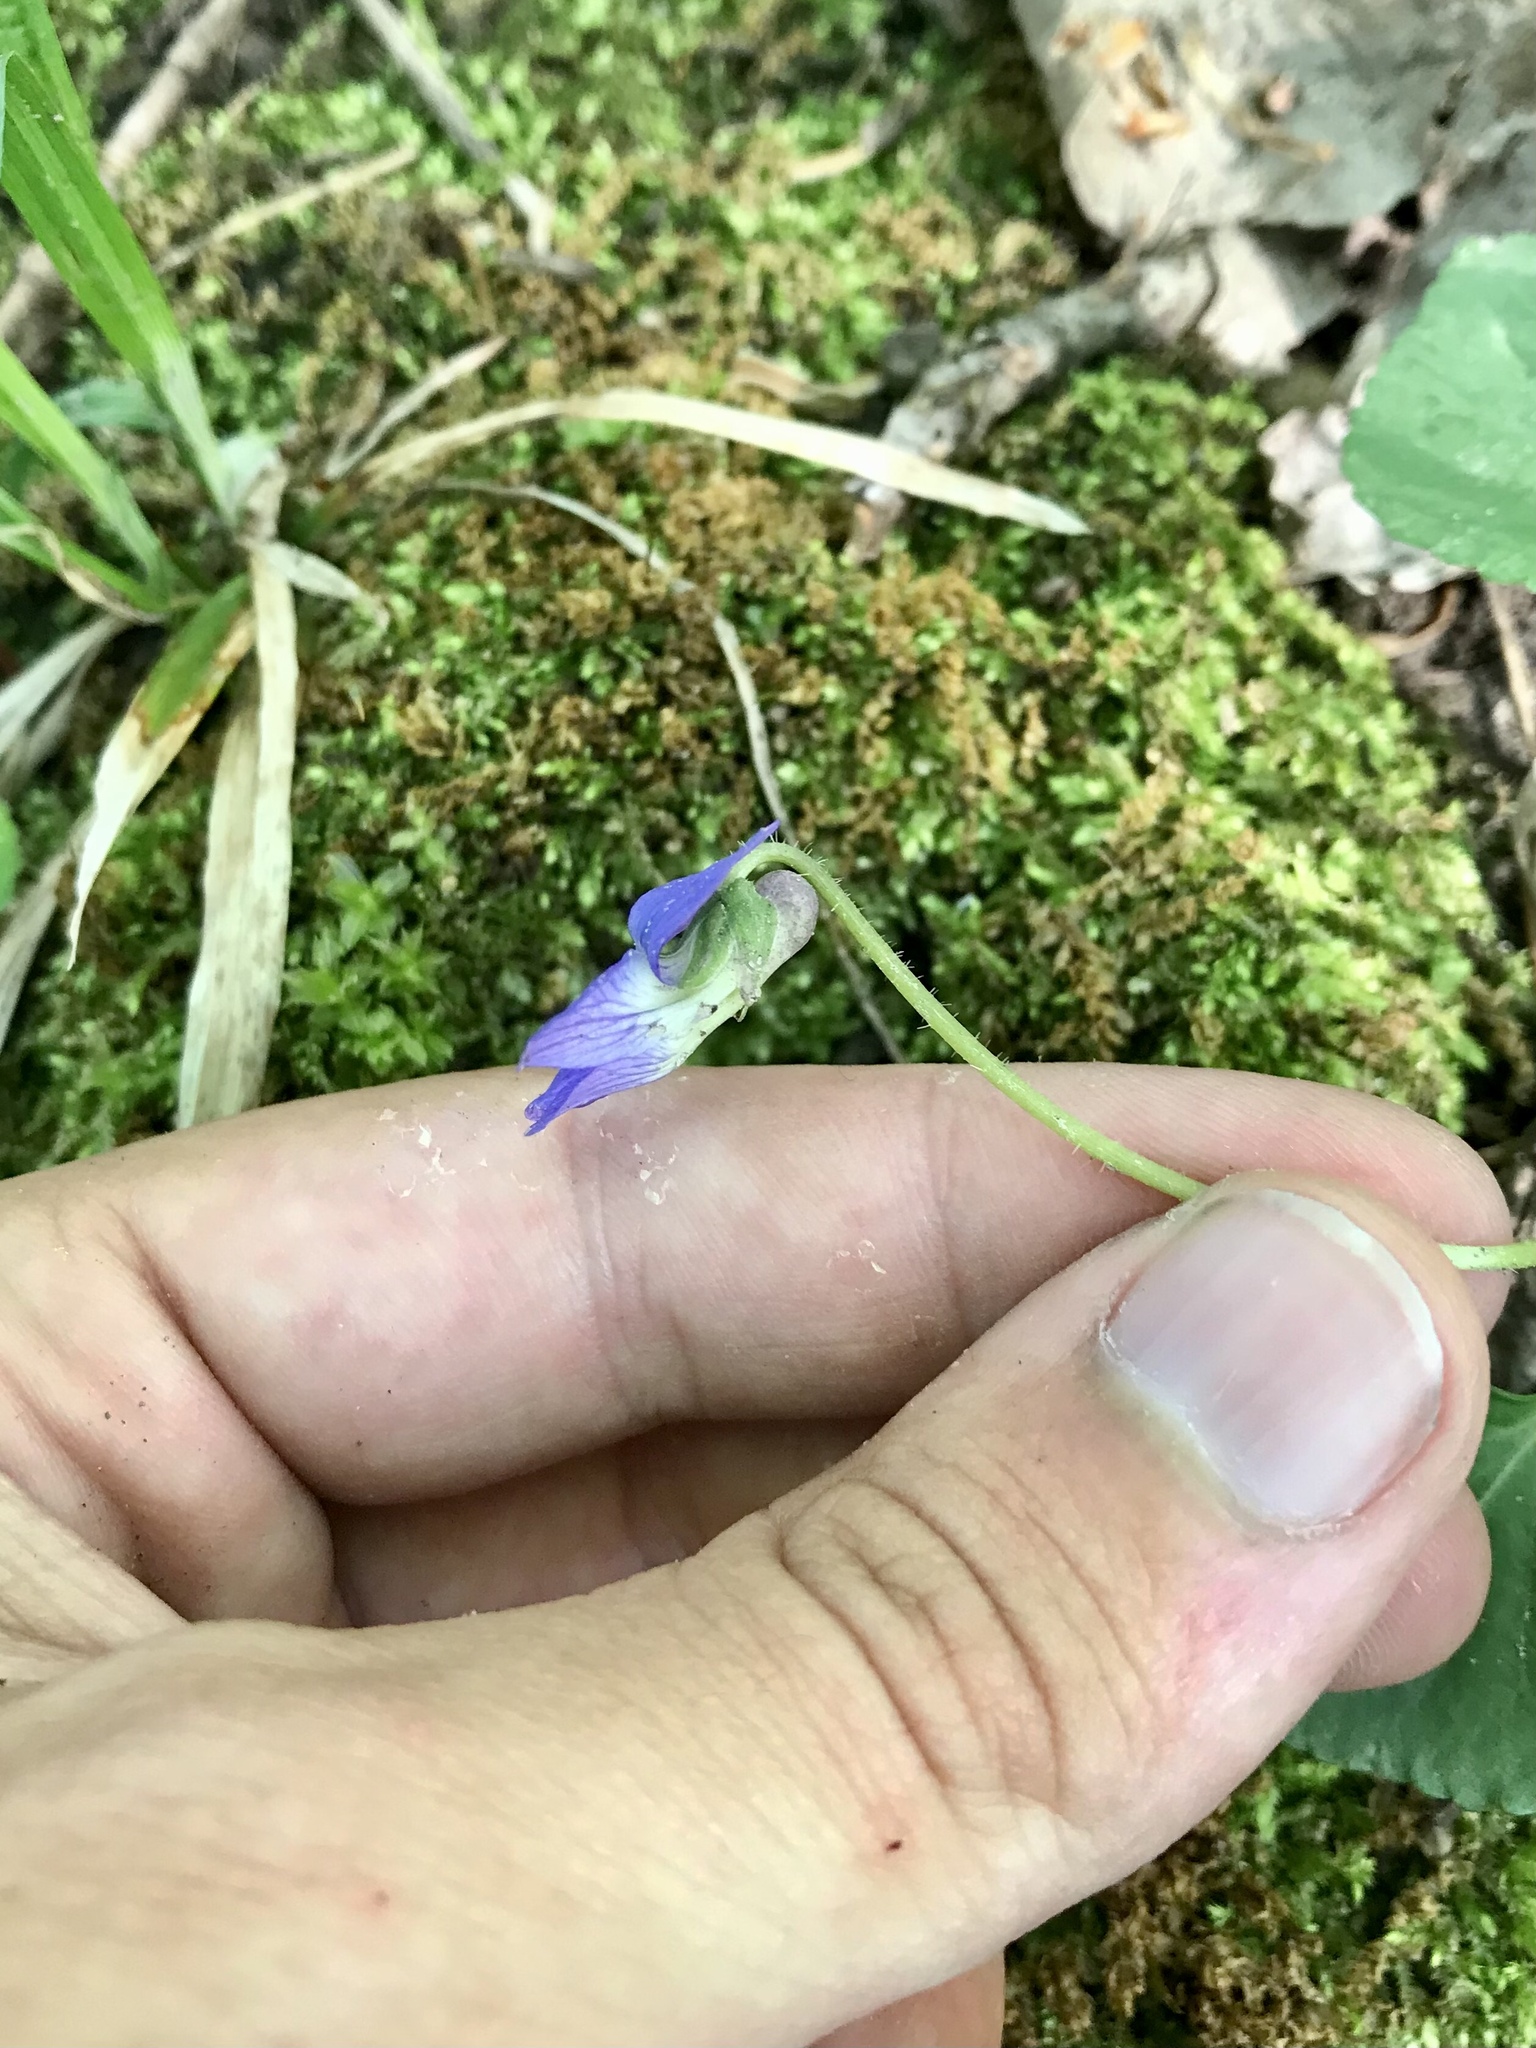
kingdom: Plantae
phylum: Tracheophyta
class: Magnoliopsida
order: Malpighiales
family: Violaceae
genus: Viola
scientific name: Viola sororia
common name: Dooryard violet
